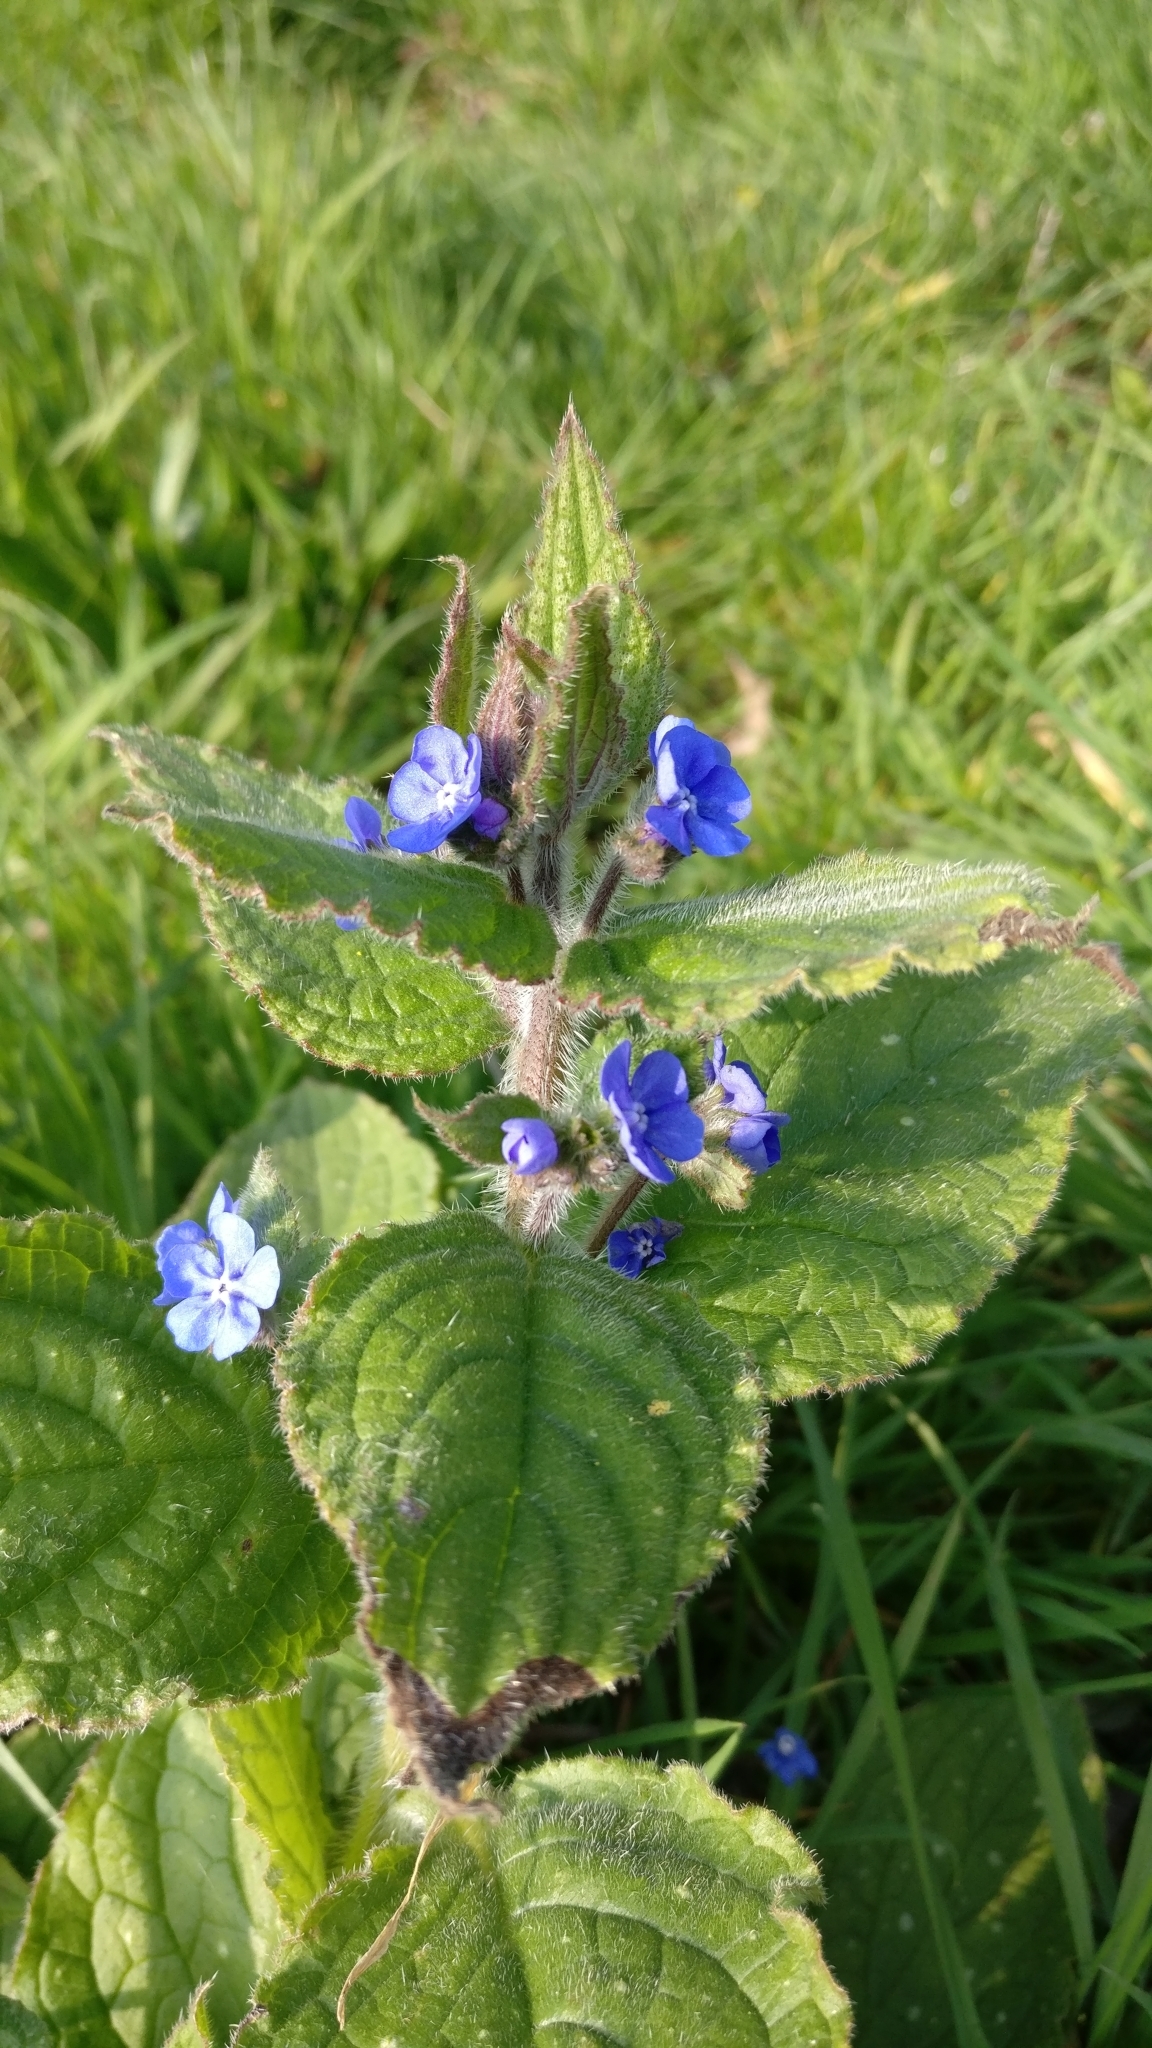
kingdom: Plantae
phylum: Tracheophyta
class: Magnoliopsida
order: Boraginales
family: Boraginaceae
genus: Pentaglottis
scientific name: Pentaglottis sempervirens
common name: Green alkanet
